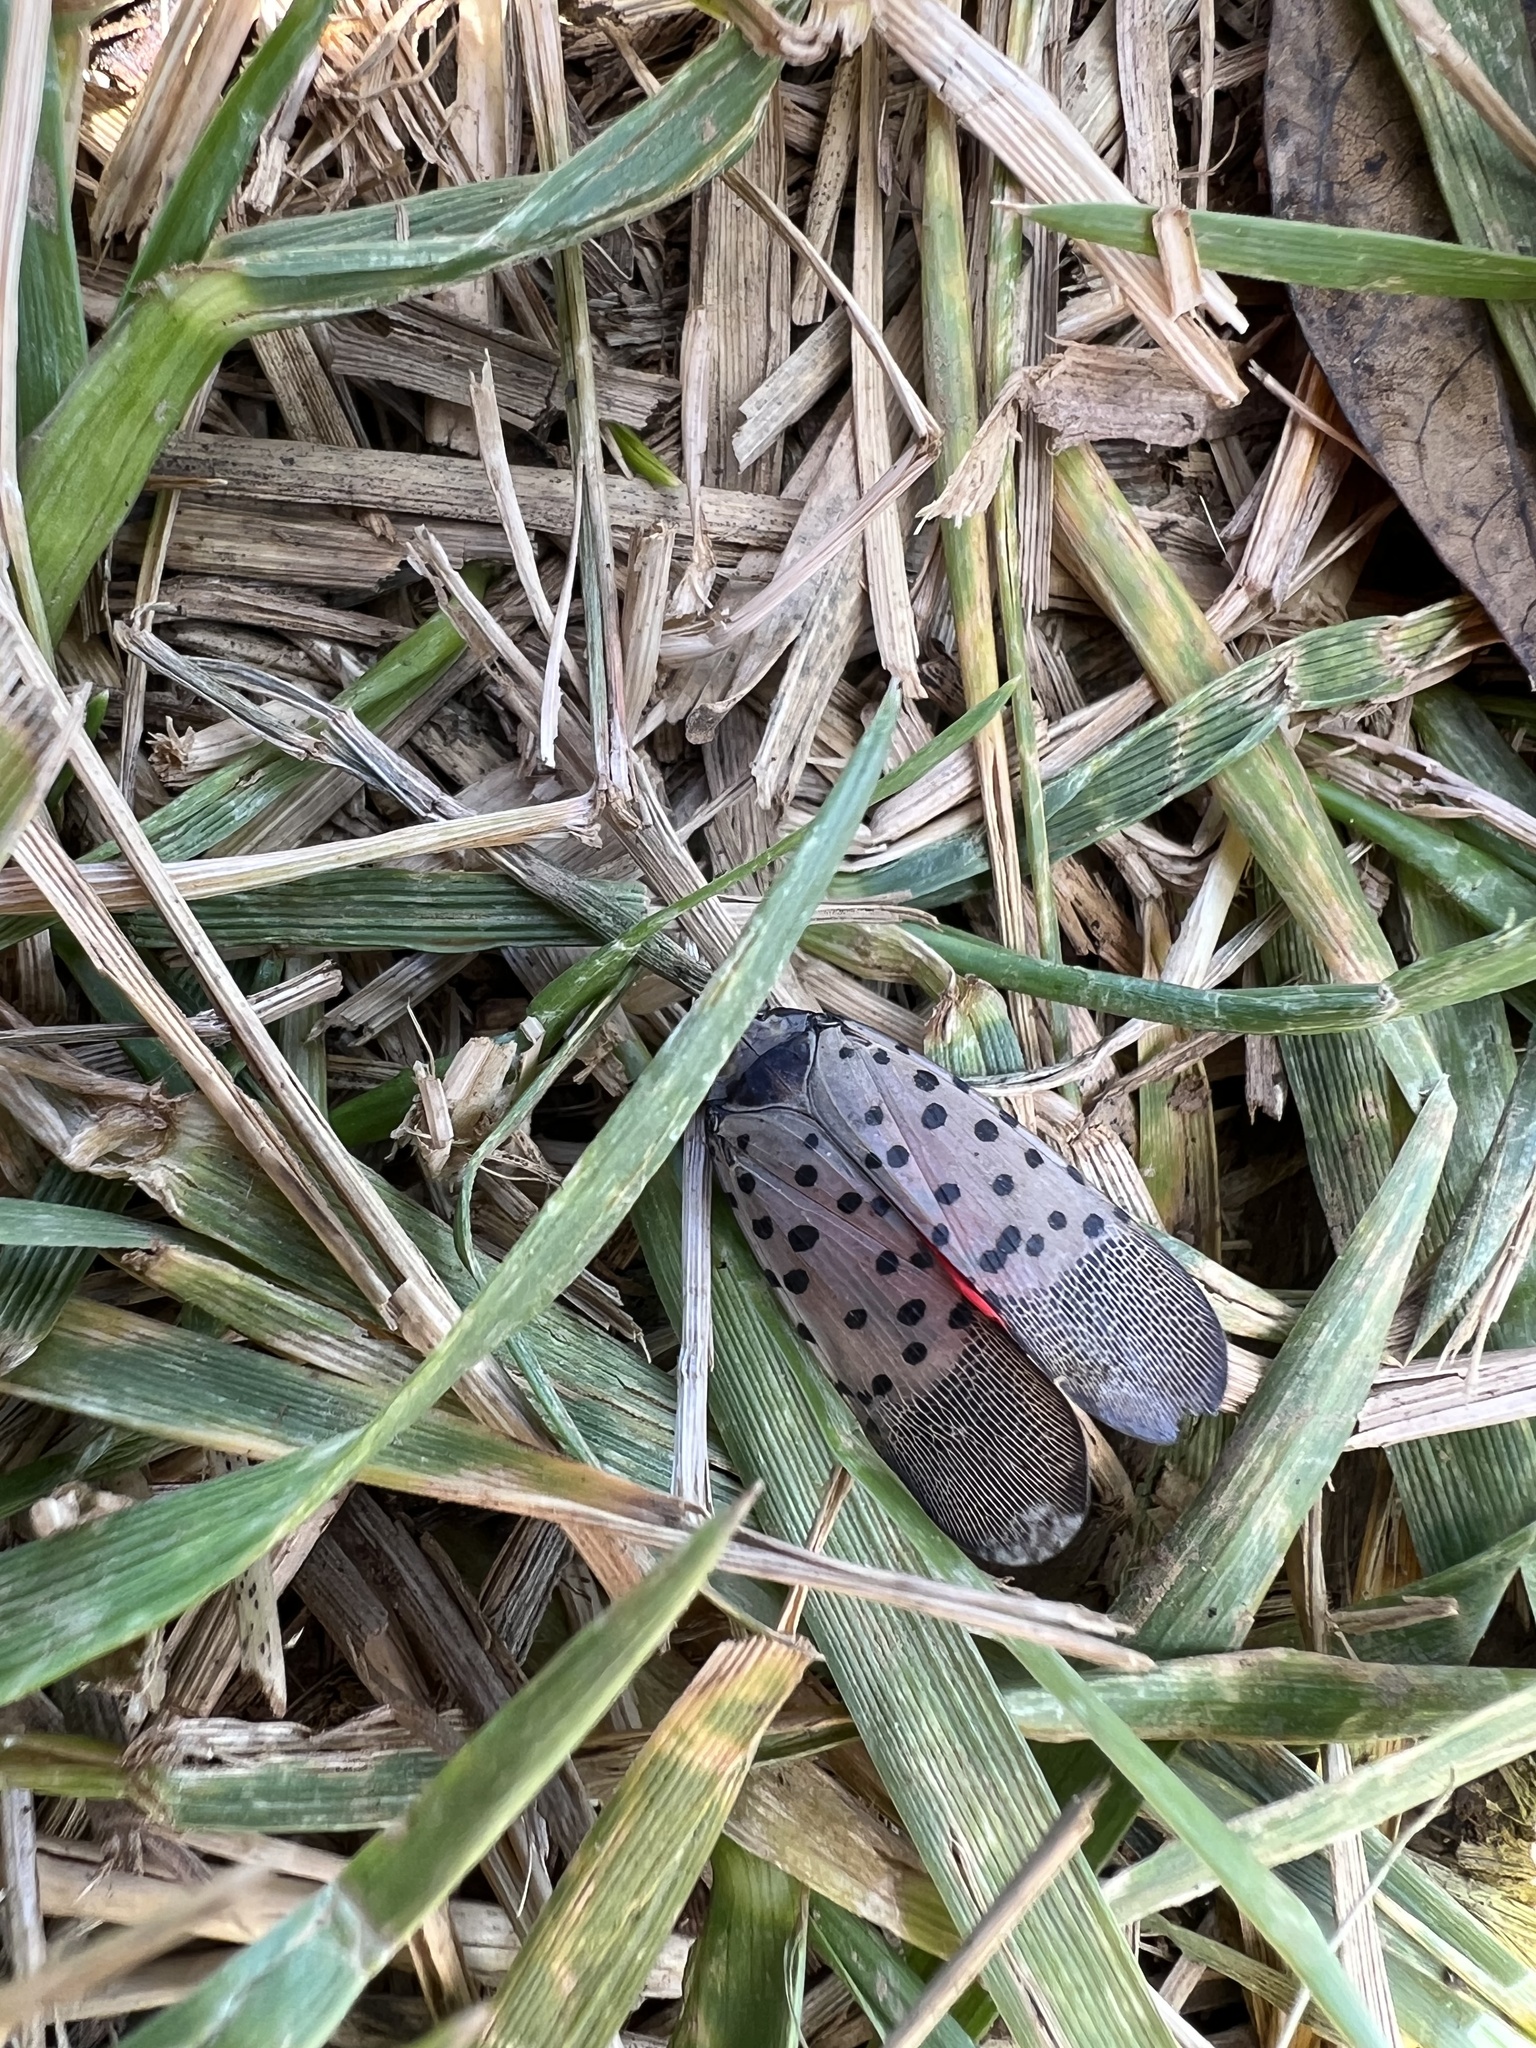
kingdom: Animalia
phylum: Arthropoda
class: Insecta
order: Hemiptera
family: Fulgoridae
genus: Lycorma
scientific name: Lycorma delicatula
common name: Spotted lanternfly
